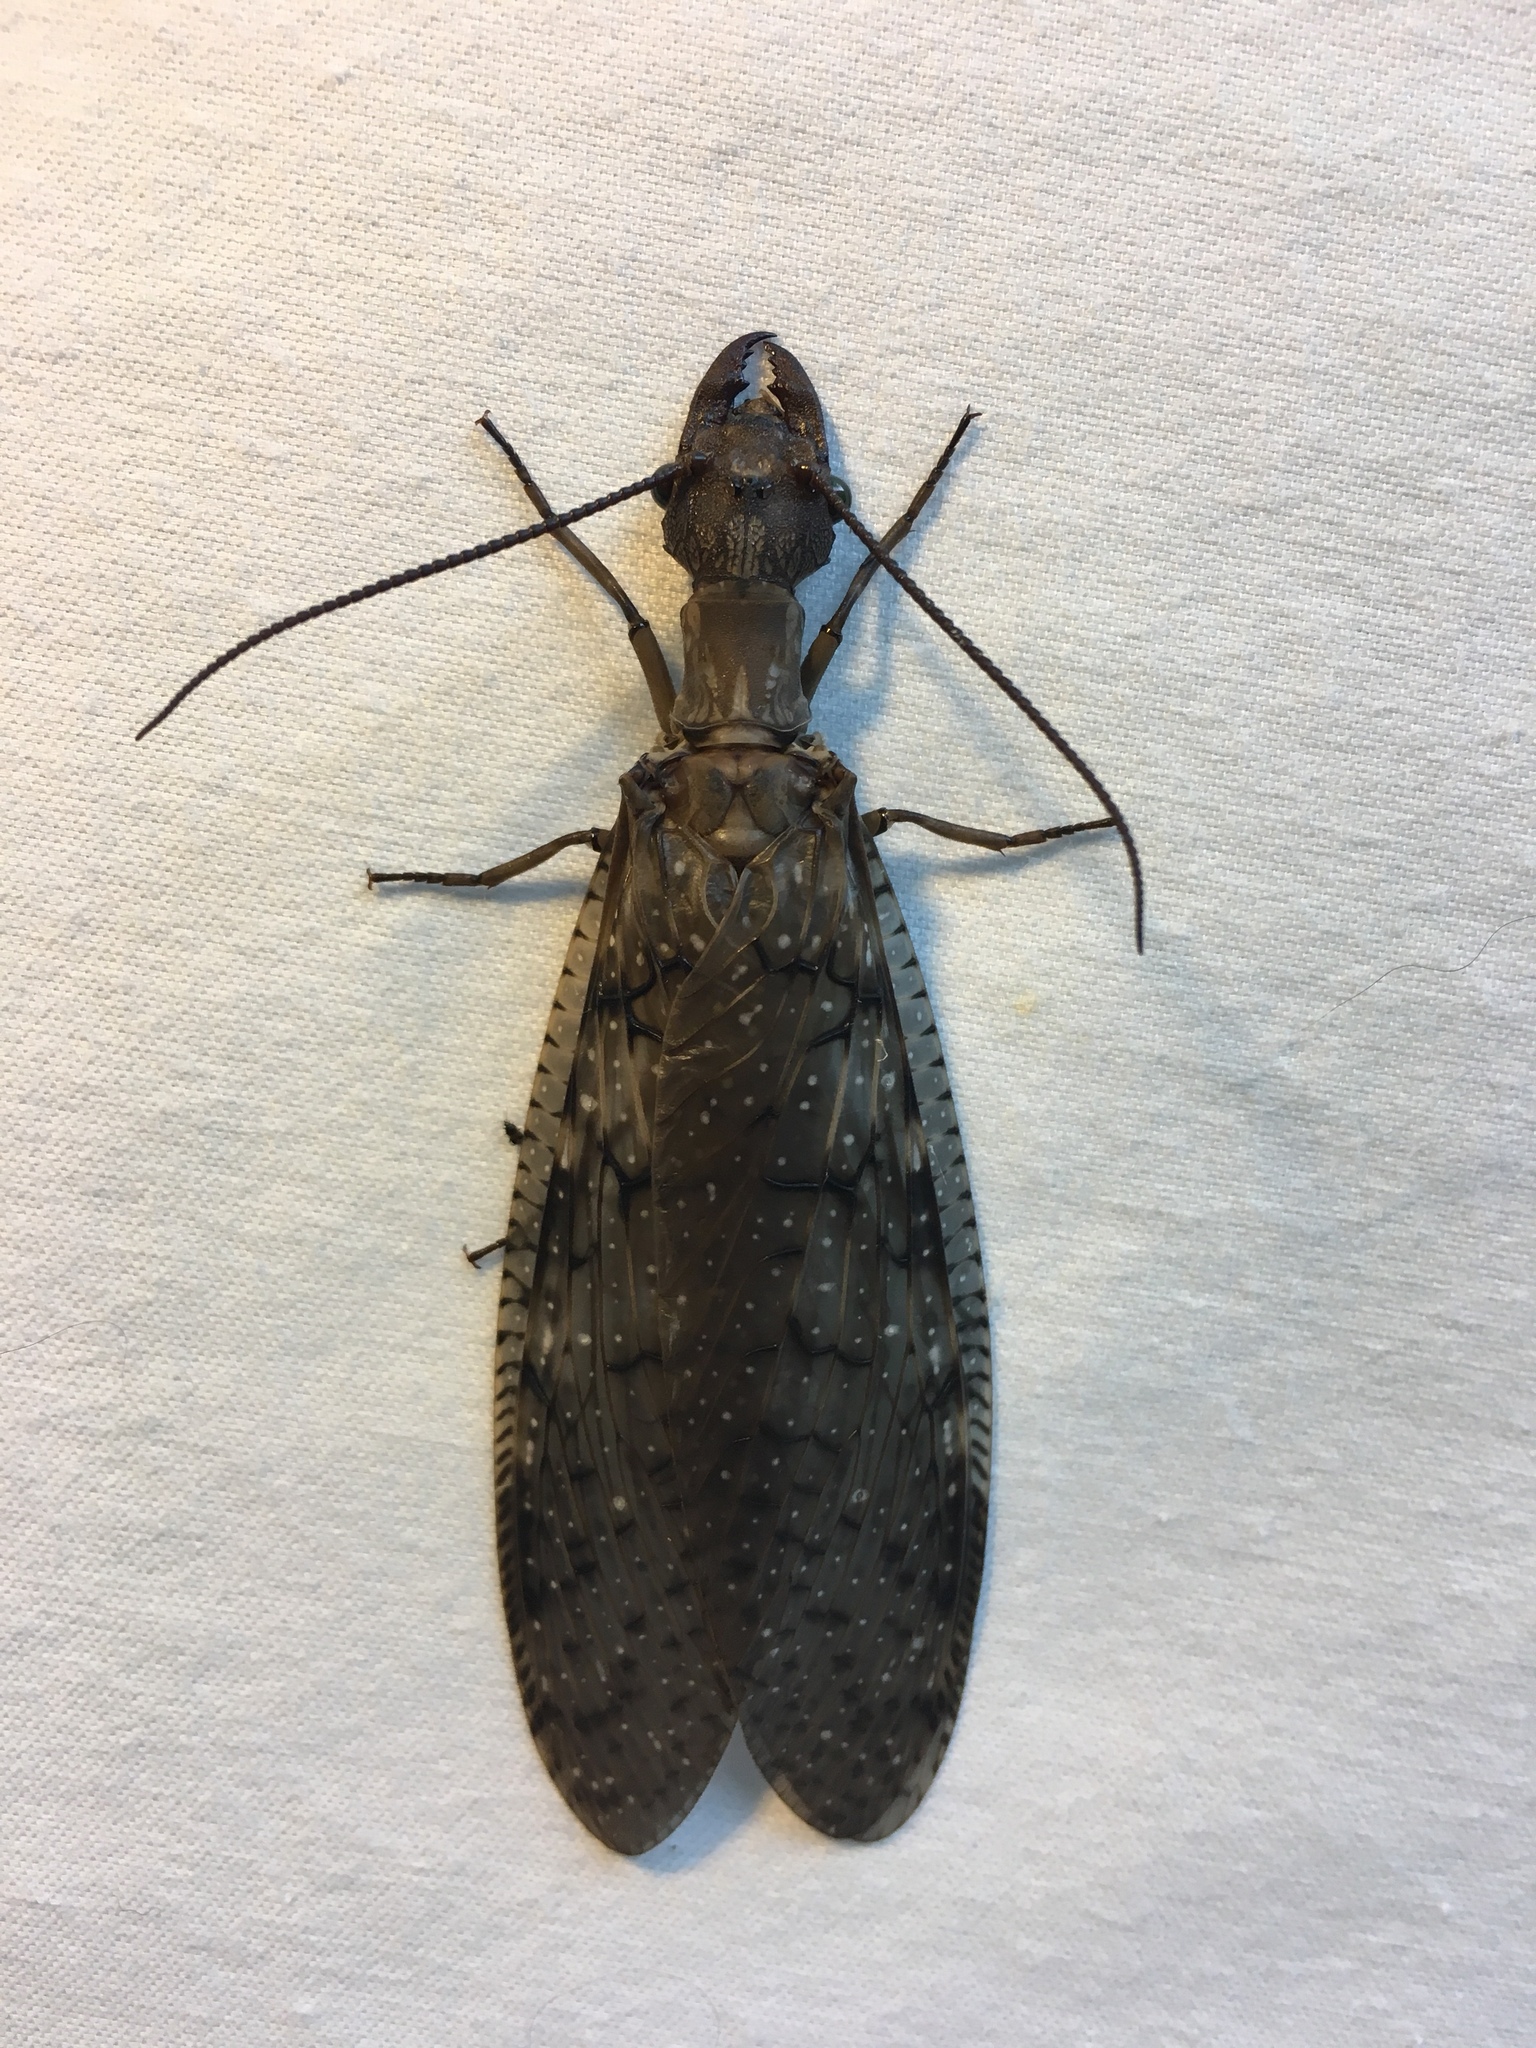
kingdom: Animalia
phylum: Arthropoda
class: Insecta
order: Megaloptera
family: Corydalidae
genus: Corydalus
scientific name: Corydalus cornutus
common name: Dobsonfly
